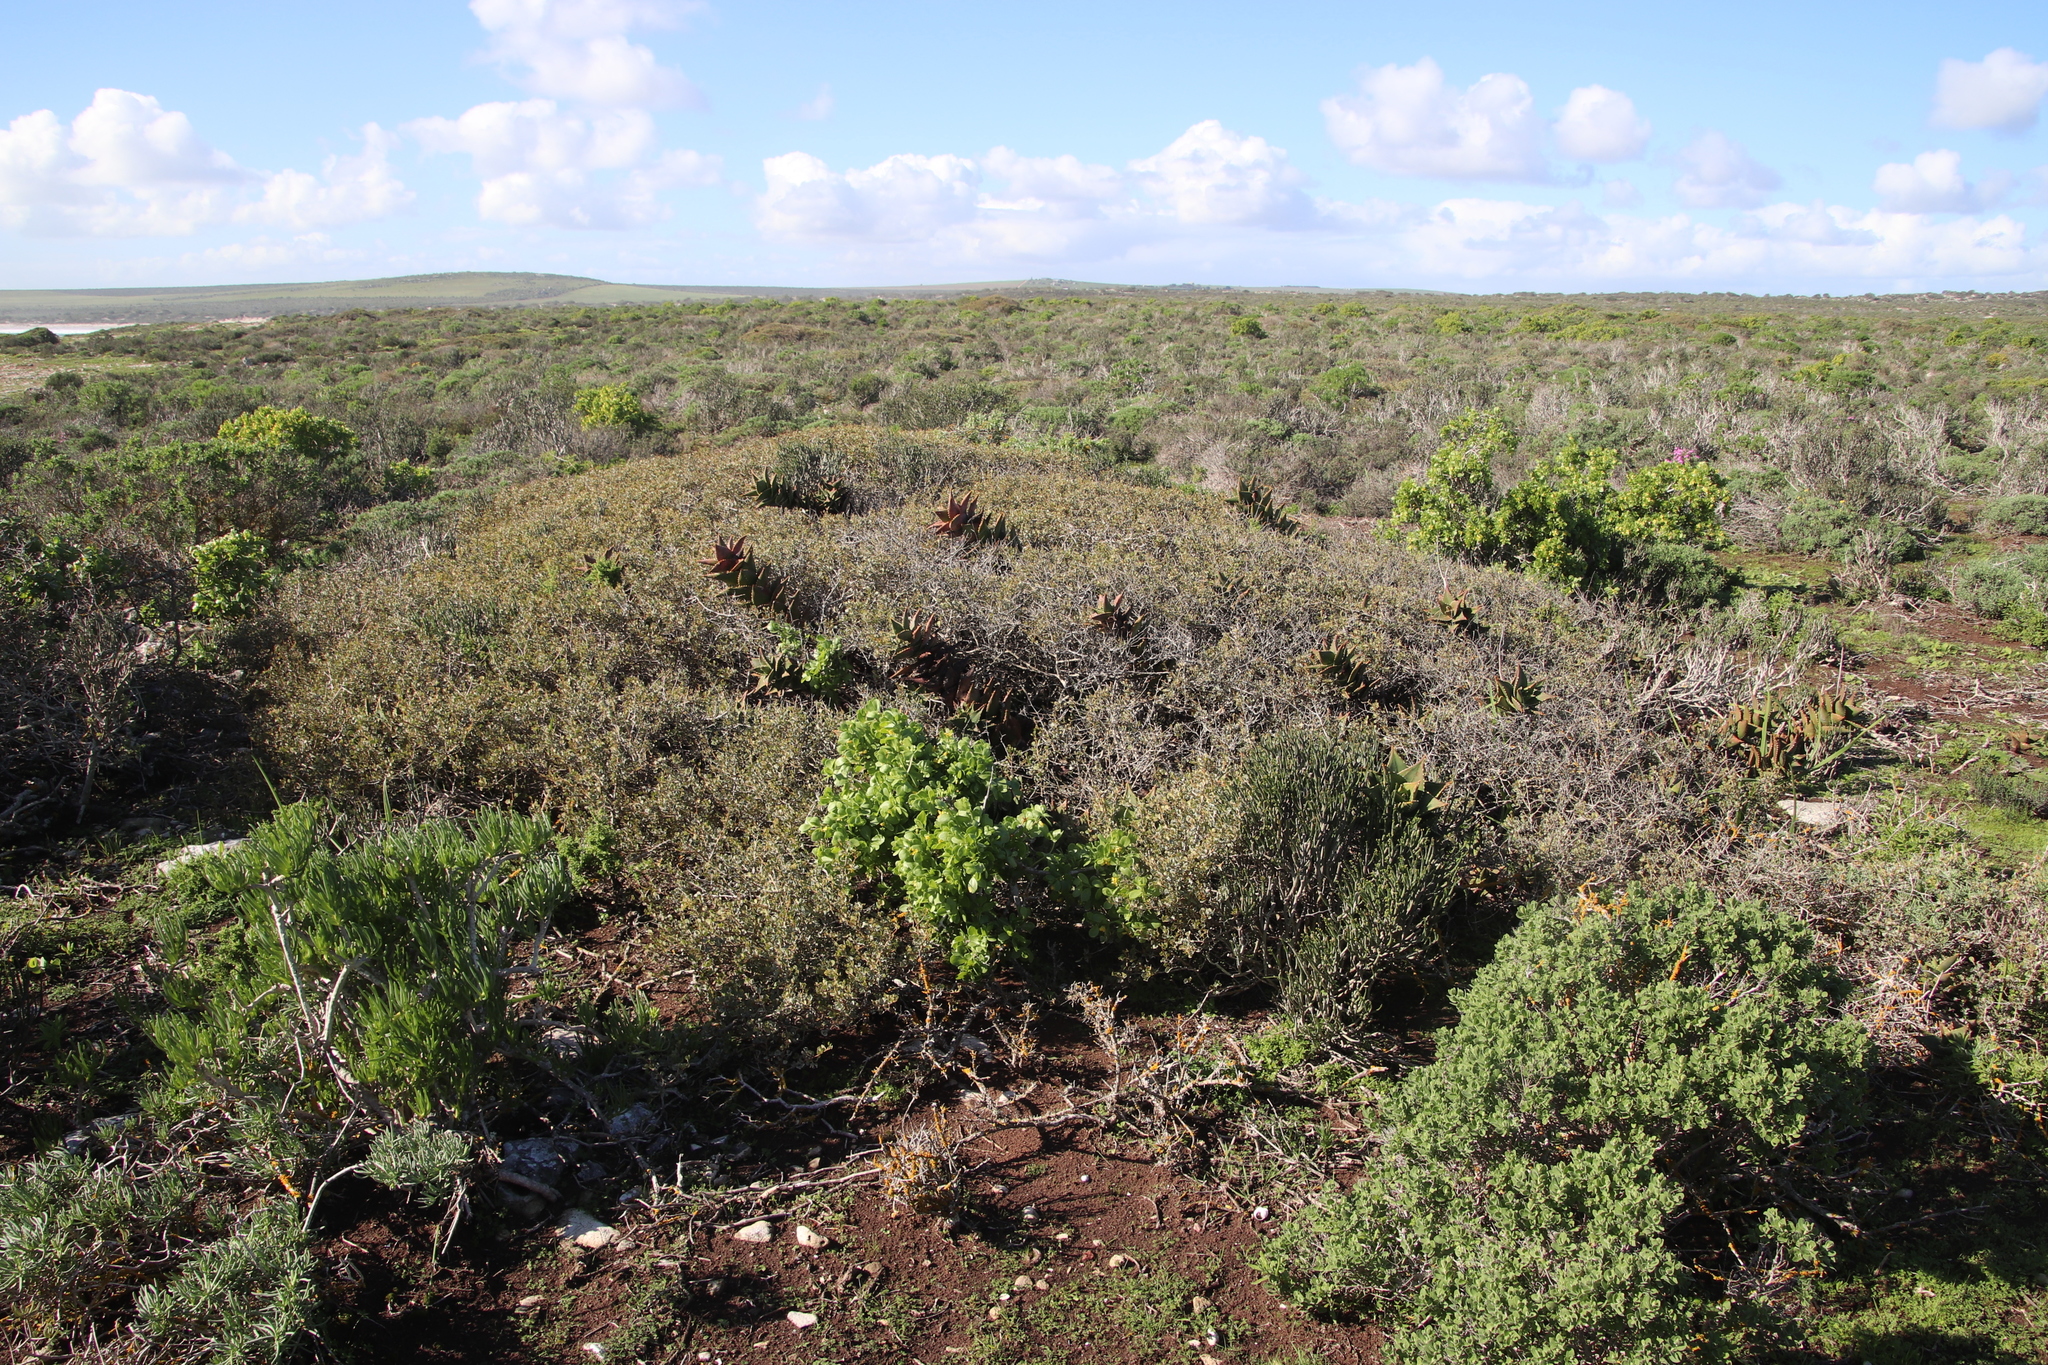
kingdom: Plantae
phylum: Tracheophyta
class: Liliopsida
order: Asparagales
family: Asphodelaceae
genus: Aloe
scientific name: Aloe distans
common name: Short-leaved aloe
